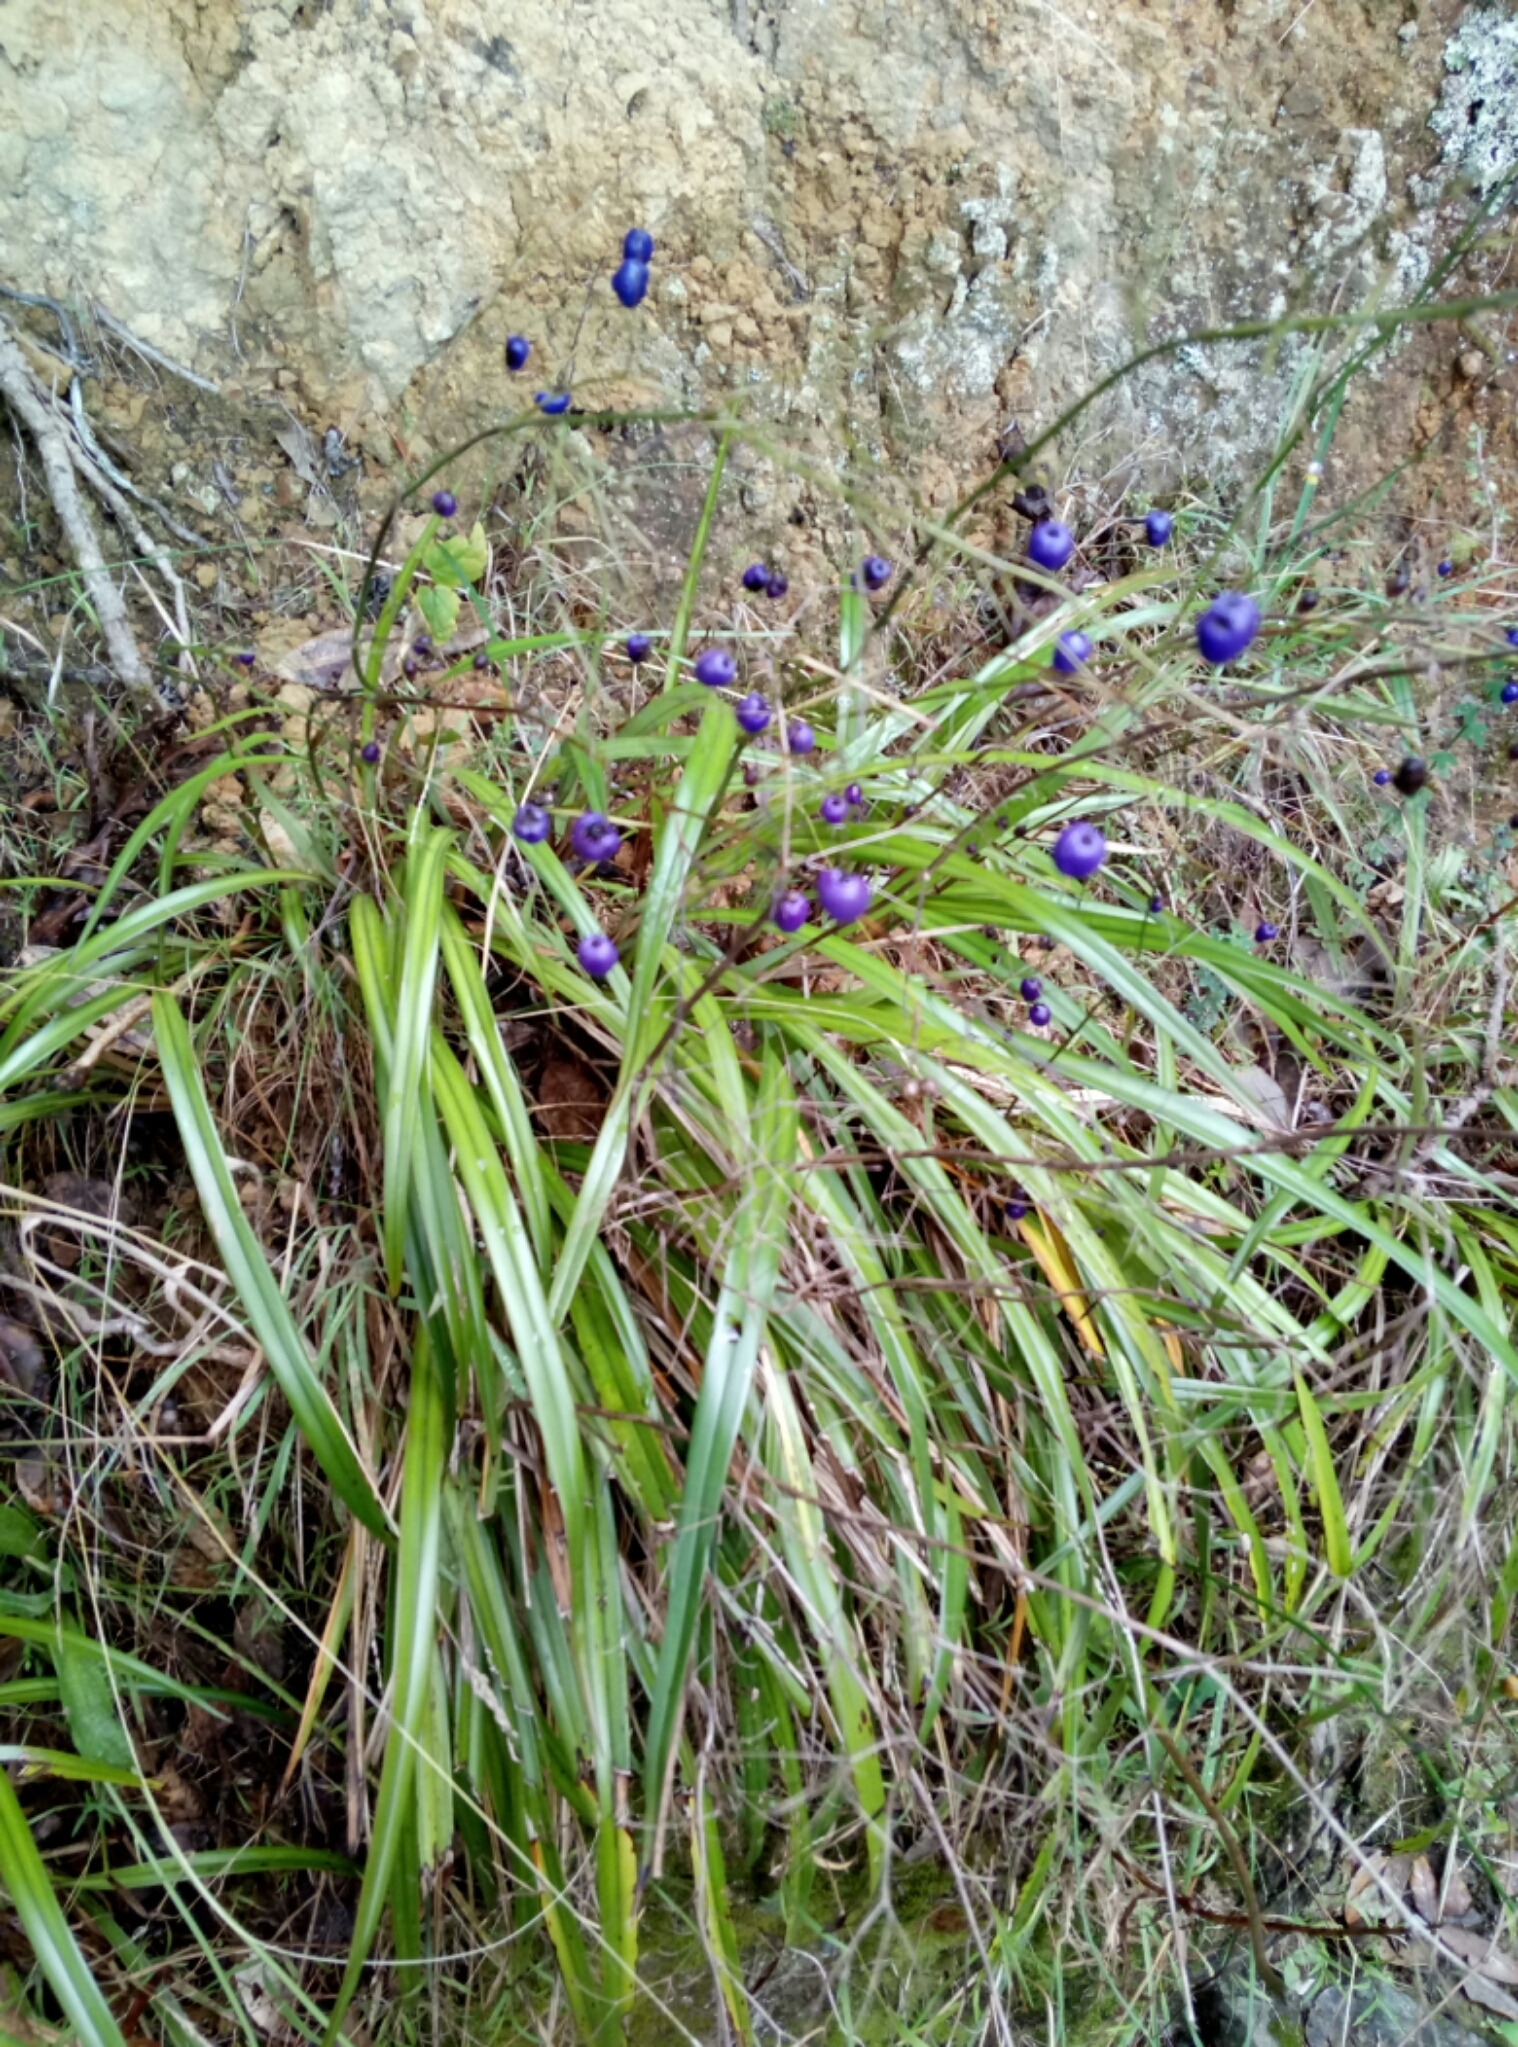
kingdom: Plantae
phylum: Tracheophyta
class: Liliopsida
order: Asparagales
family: Asphodelaceae
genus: Dianella
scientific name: Dianella nigra
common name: New zealand-blueberry
